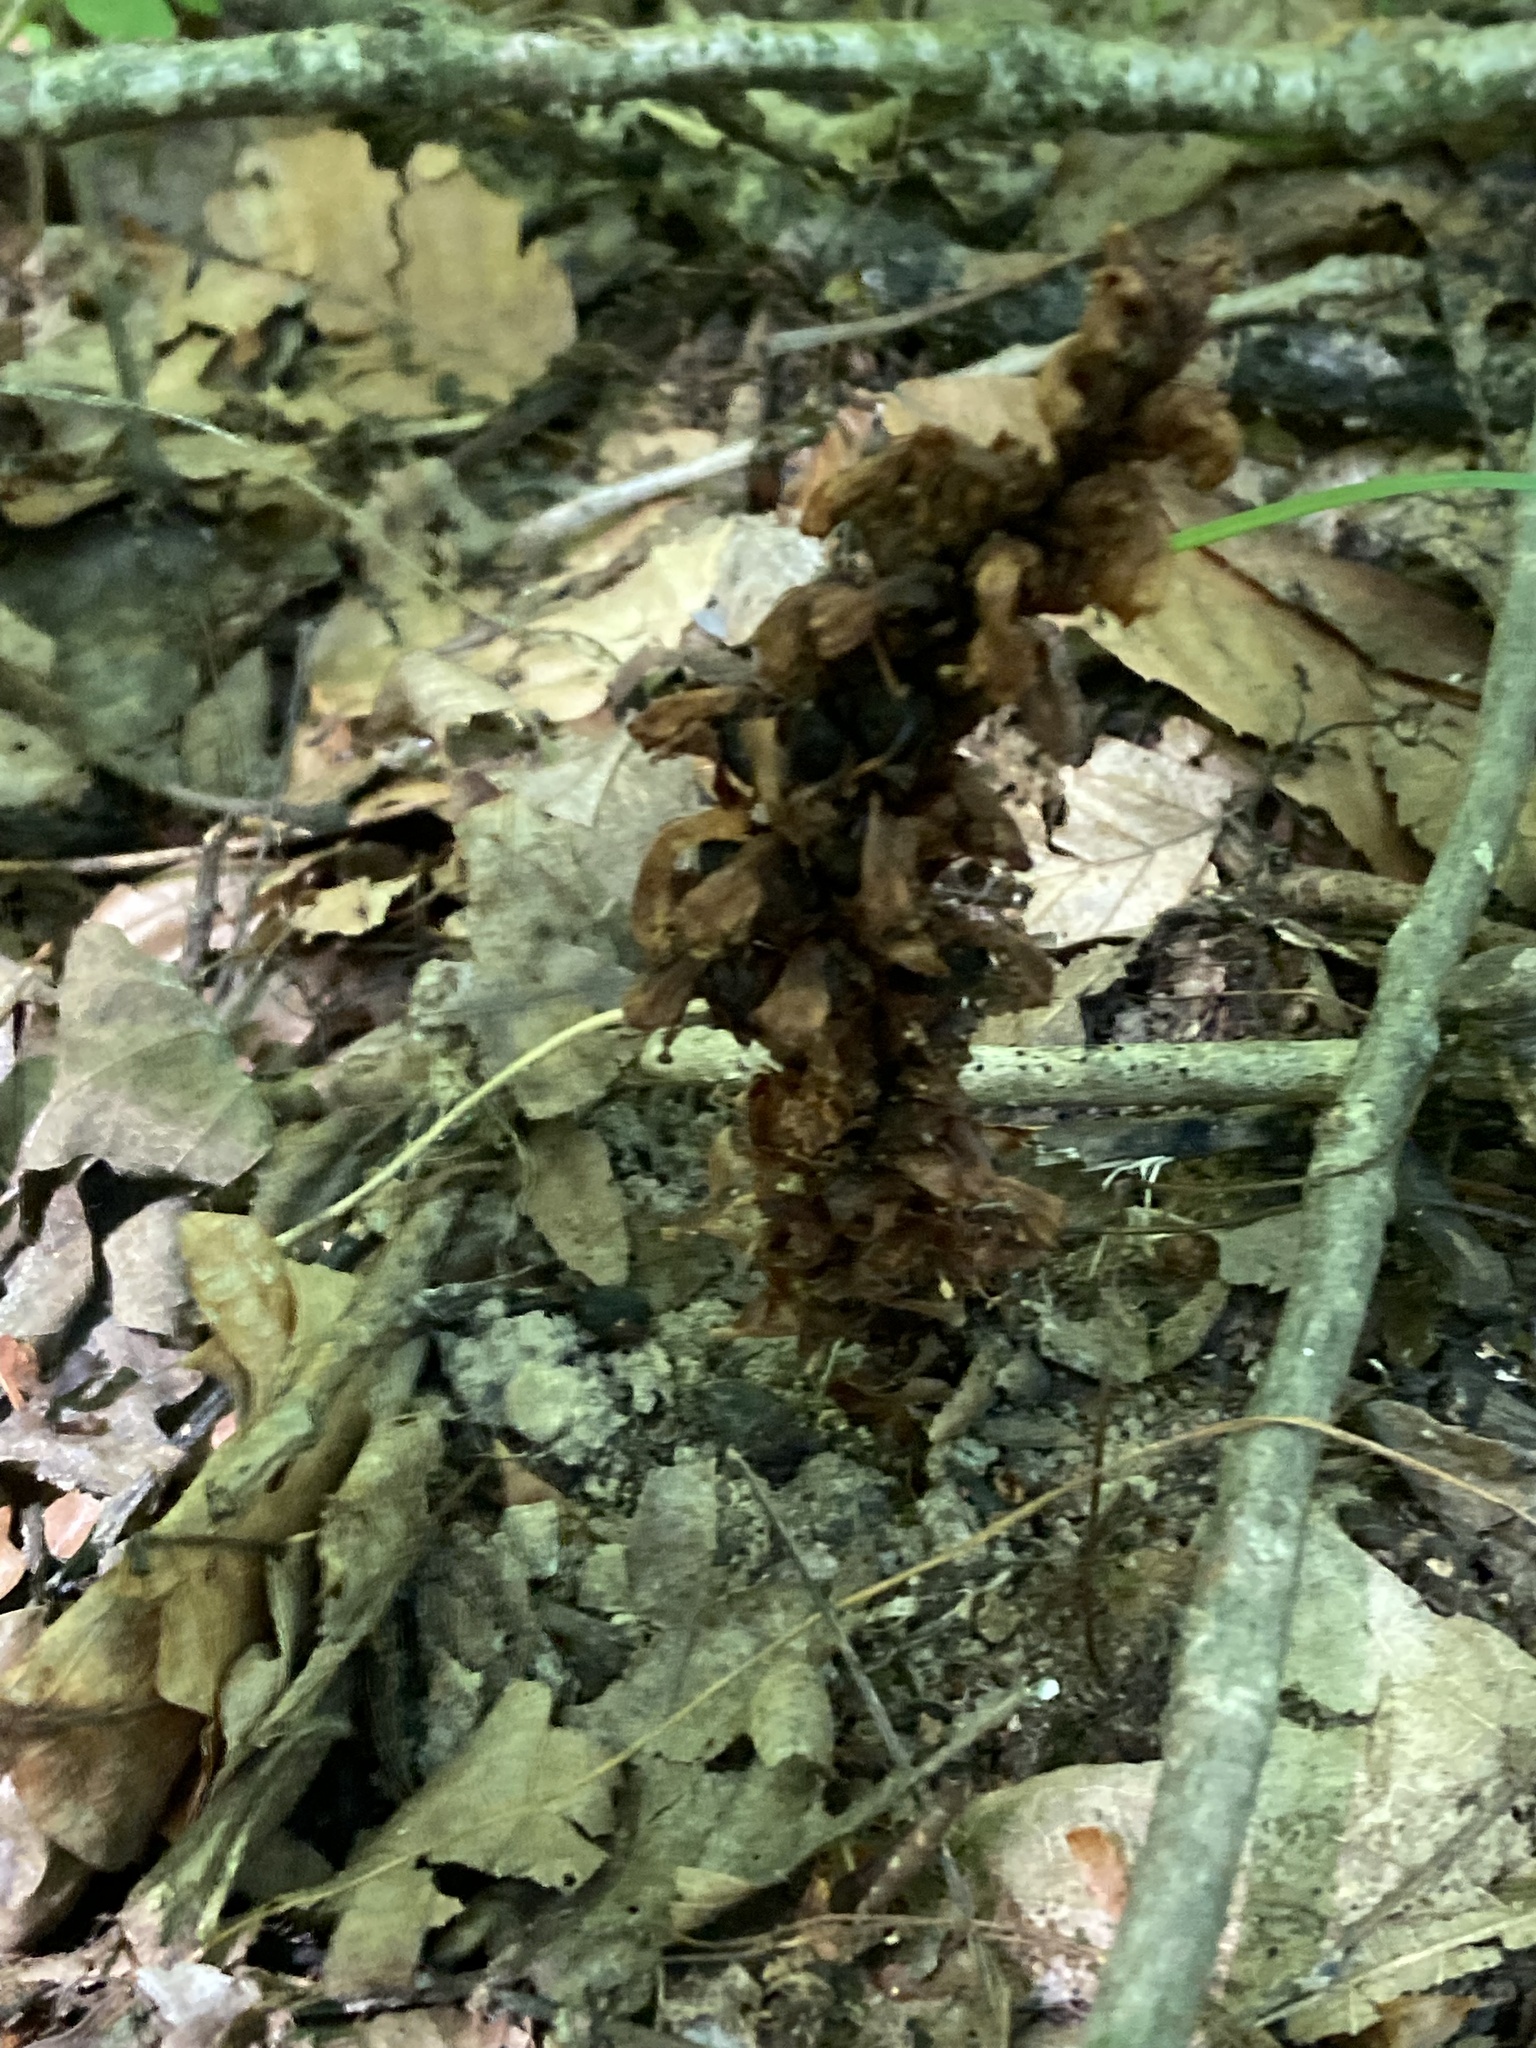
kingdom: Plantae
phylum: Tracheophyta
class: Magnoliopsida
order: Lamiales
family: Orobanchaceae
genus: Conopholis
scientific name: Conopholis americana
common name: American cancer-root
